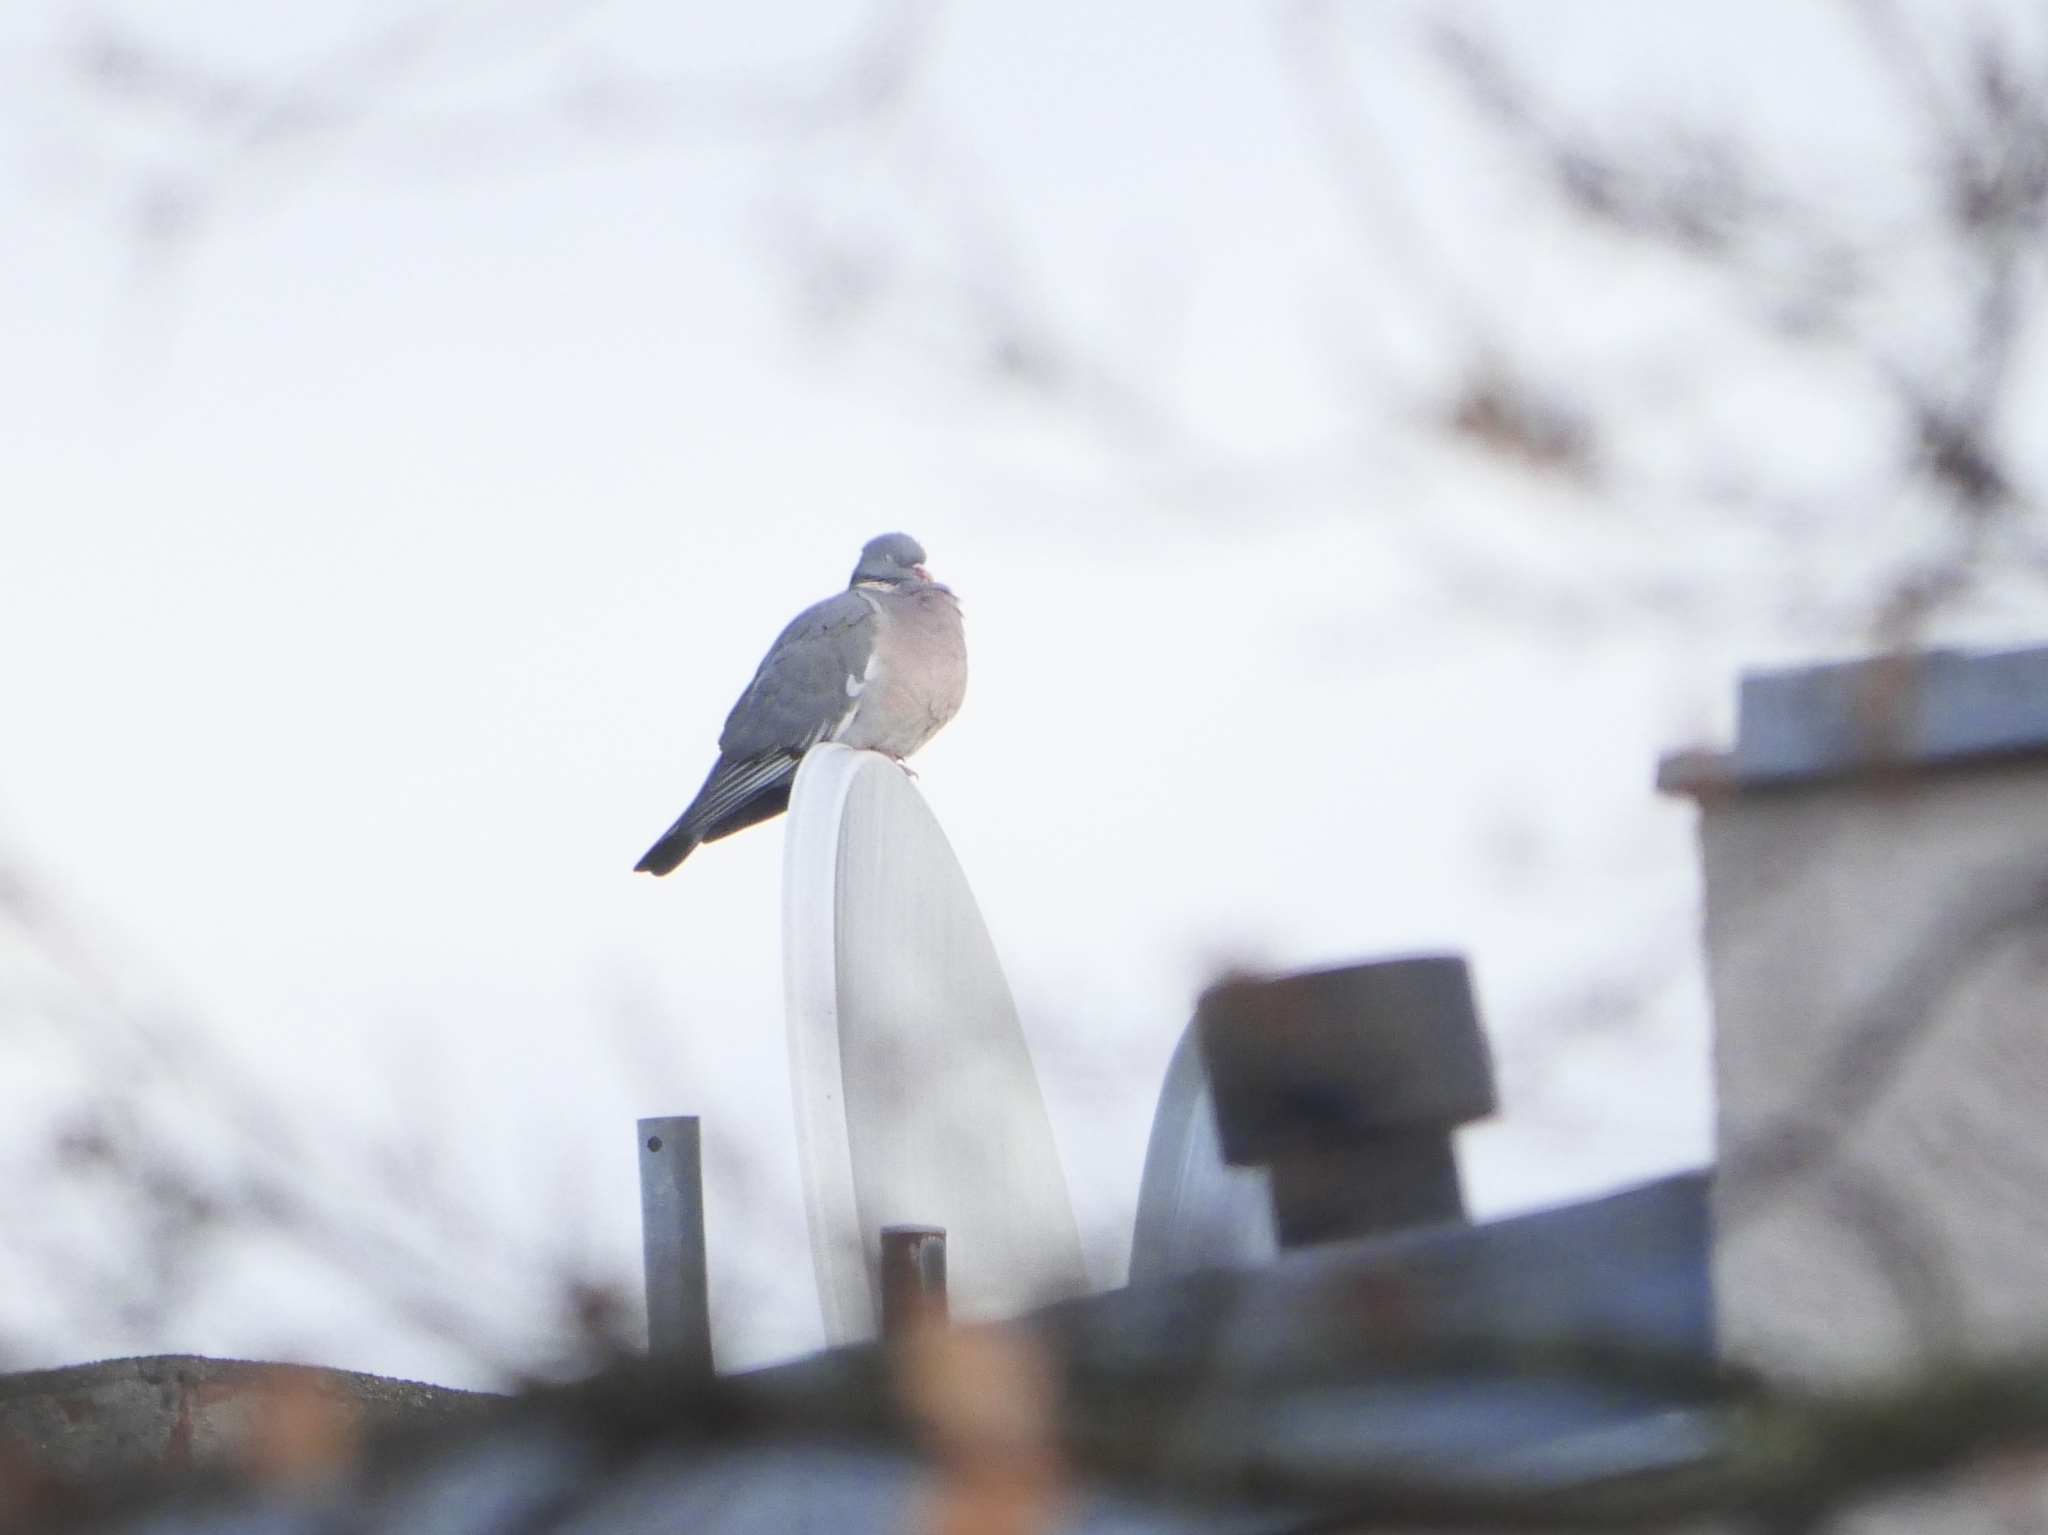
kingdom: Animalia
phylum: Chordata
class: Aves
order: Columbiformes
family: Columbidae
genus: Columba
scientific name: Columba palumbus
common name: Common wood pigeon
